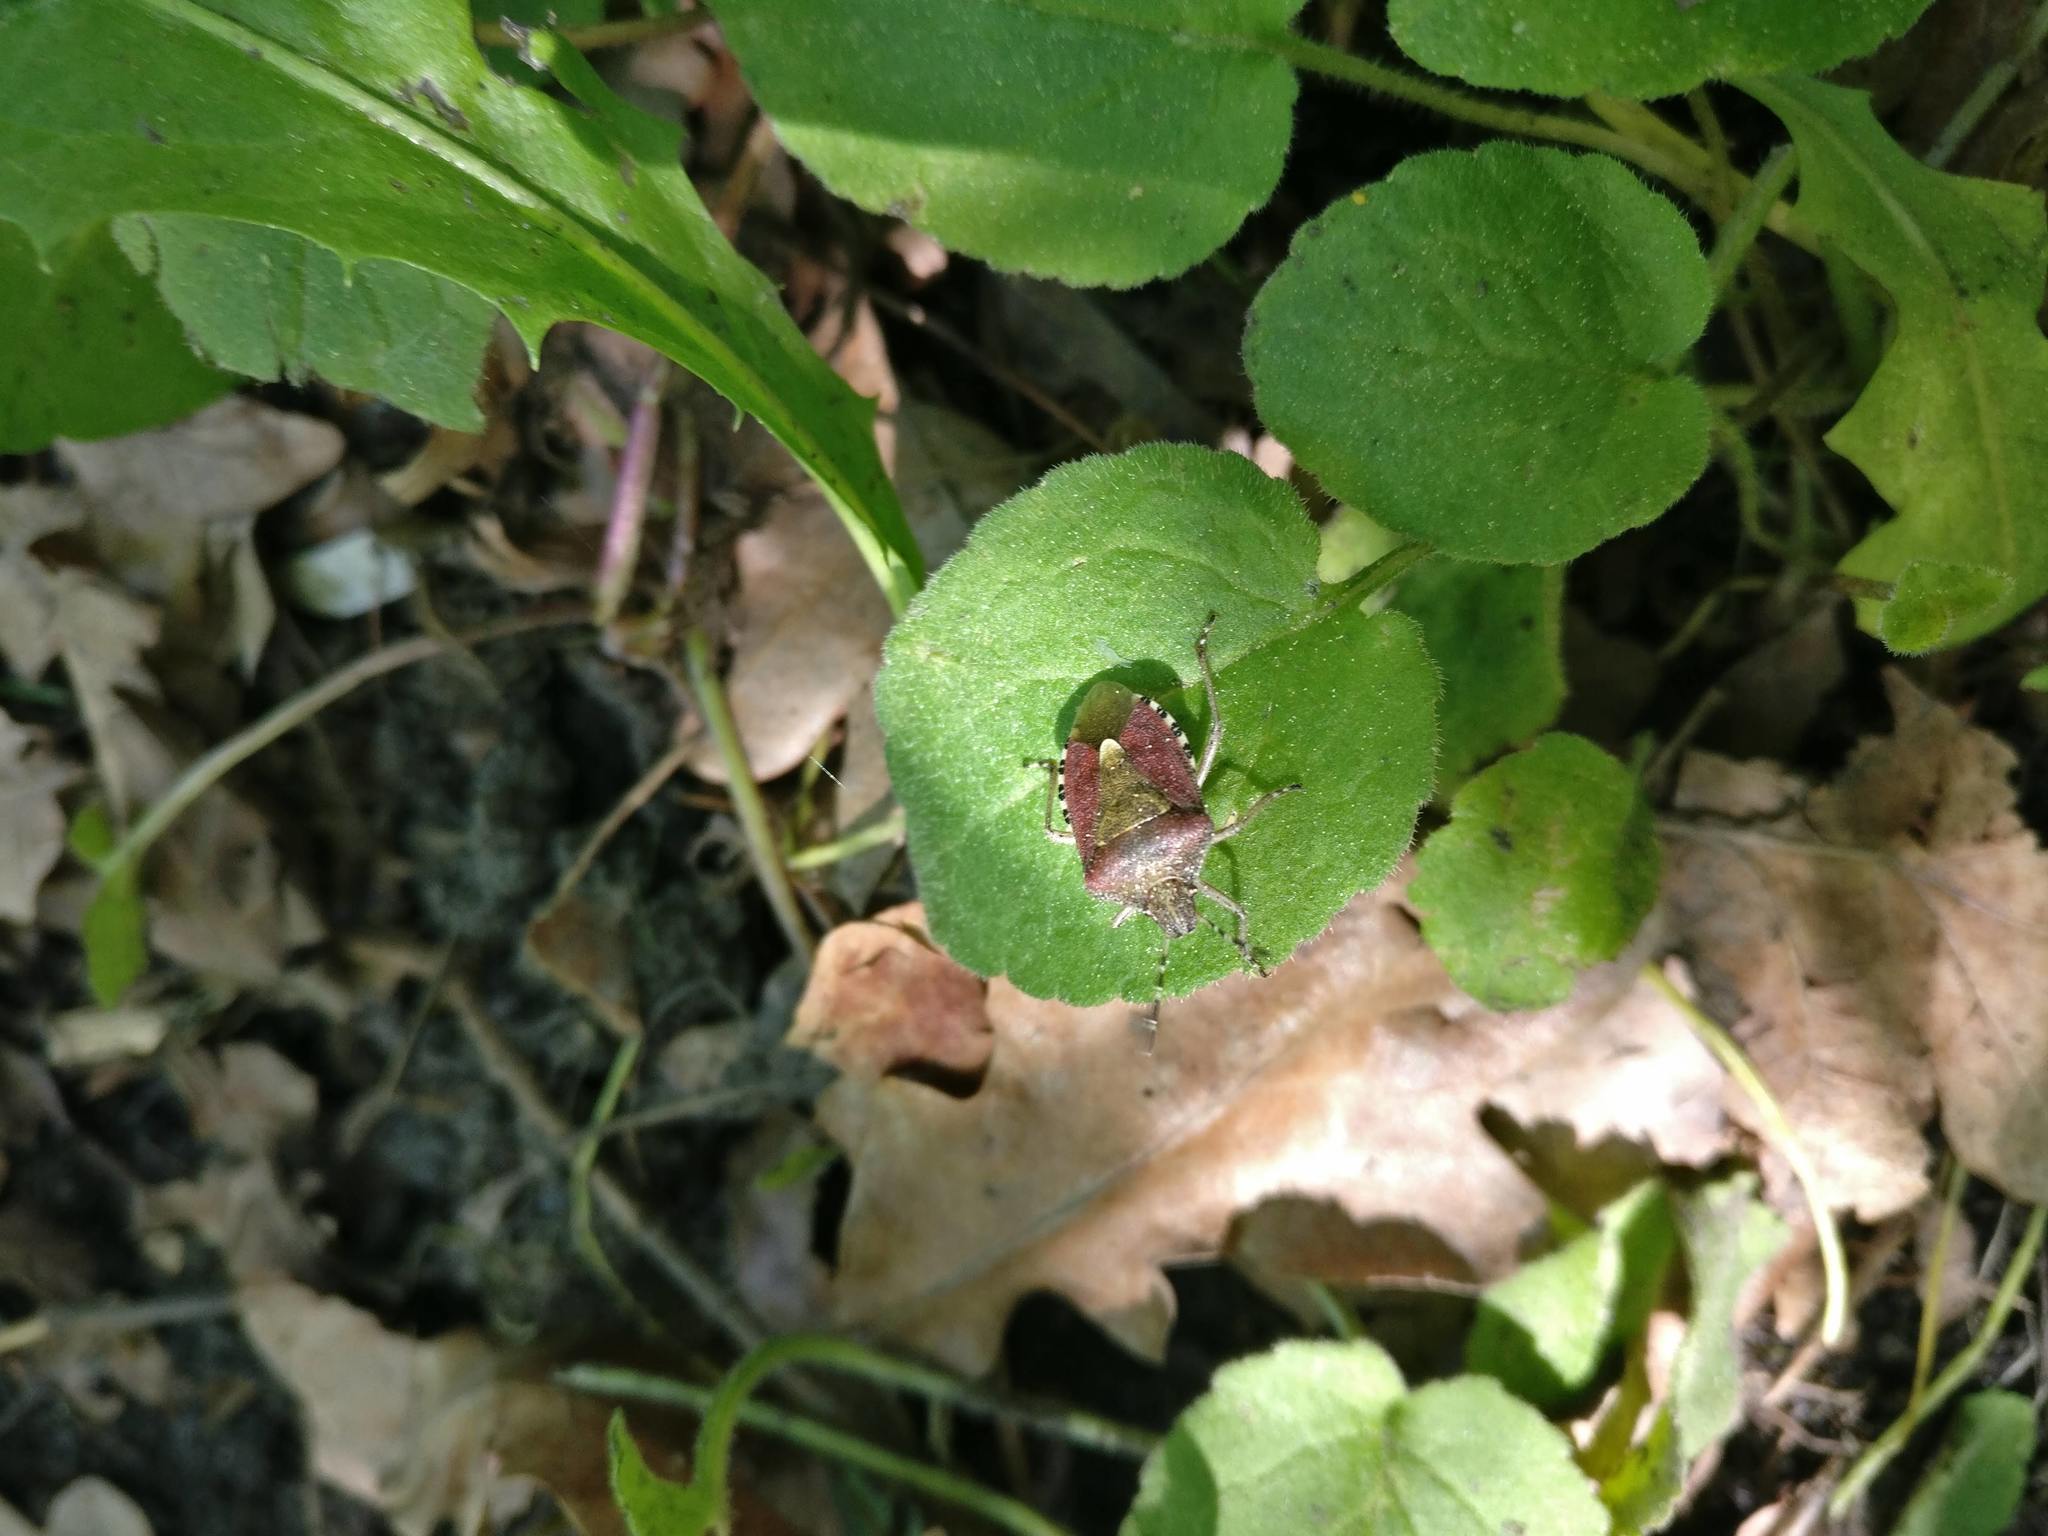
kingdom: Animalia
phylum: Arthropoda
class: Insecta
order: Hemiptera
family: Pentatomidae
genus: Dolycoris
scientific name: Dolycoris baccarum
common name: Sloe bug
